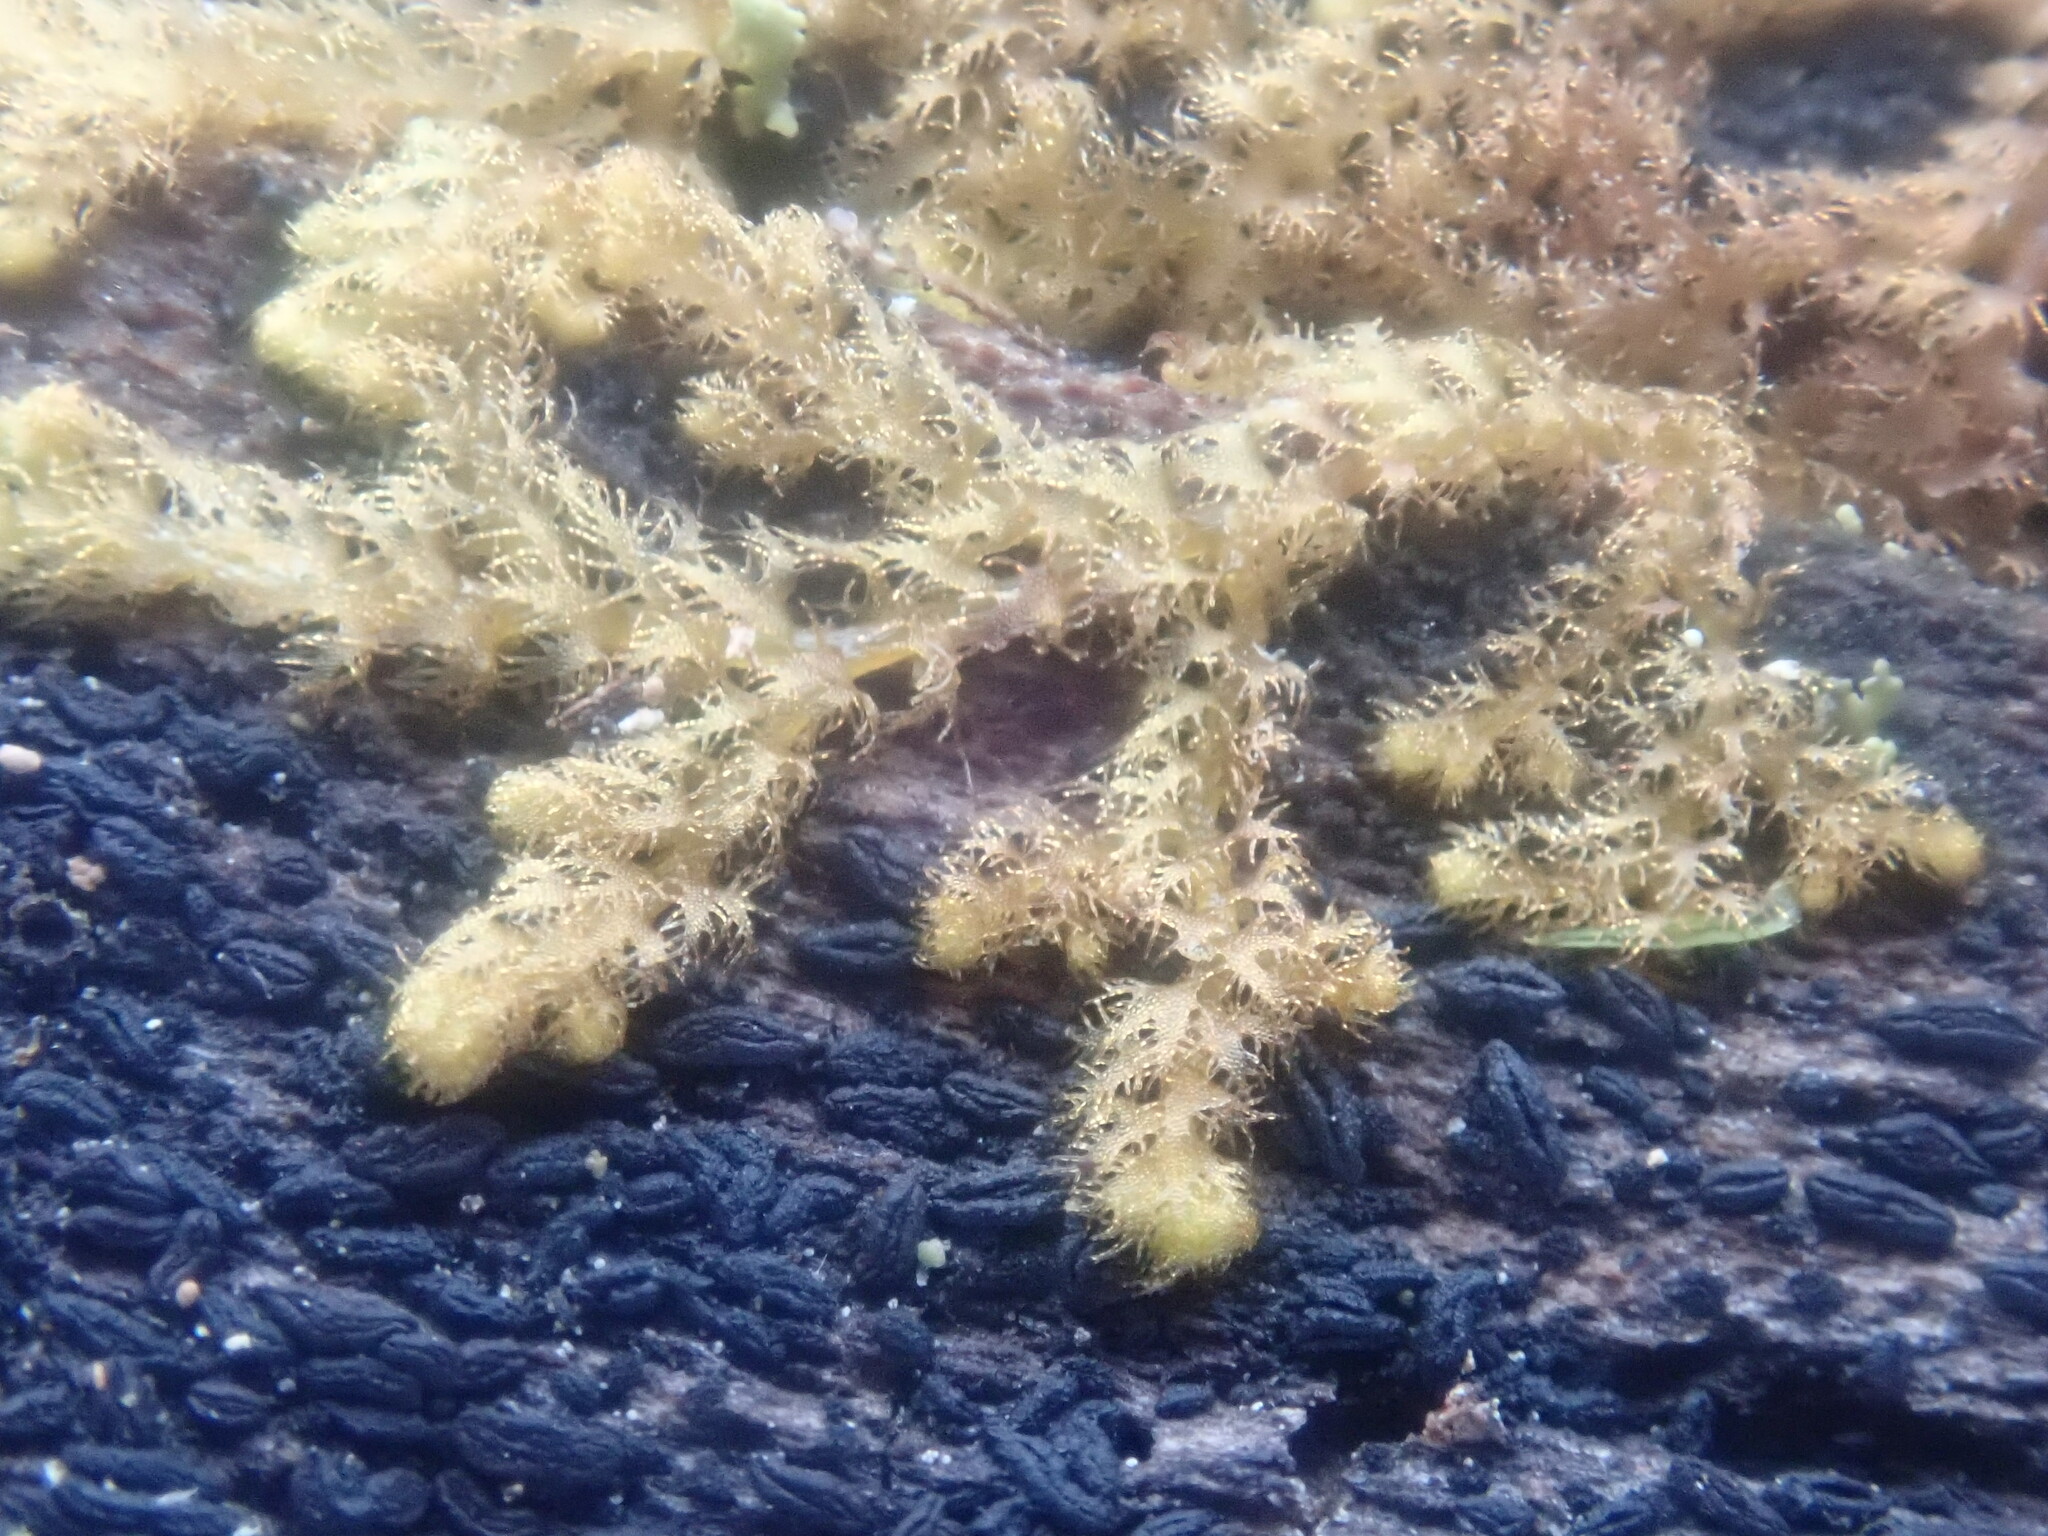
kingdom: Plantae
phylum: Marchantiophyta
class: Jungermanniopsida
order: Ptilidiales
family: Ptilidiaceae
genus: Ptilidium
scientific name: Ptilidium pulcherrimum
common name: Tree fringewort
